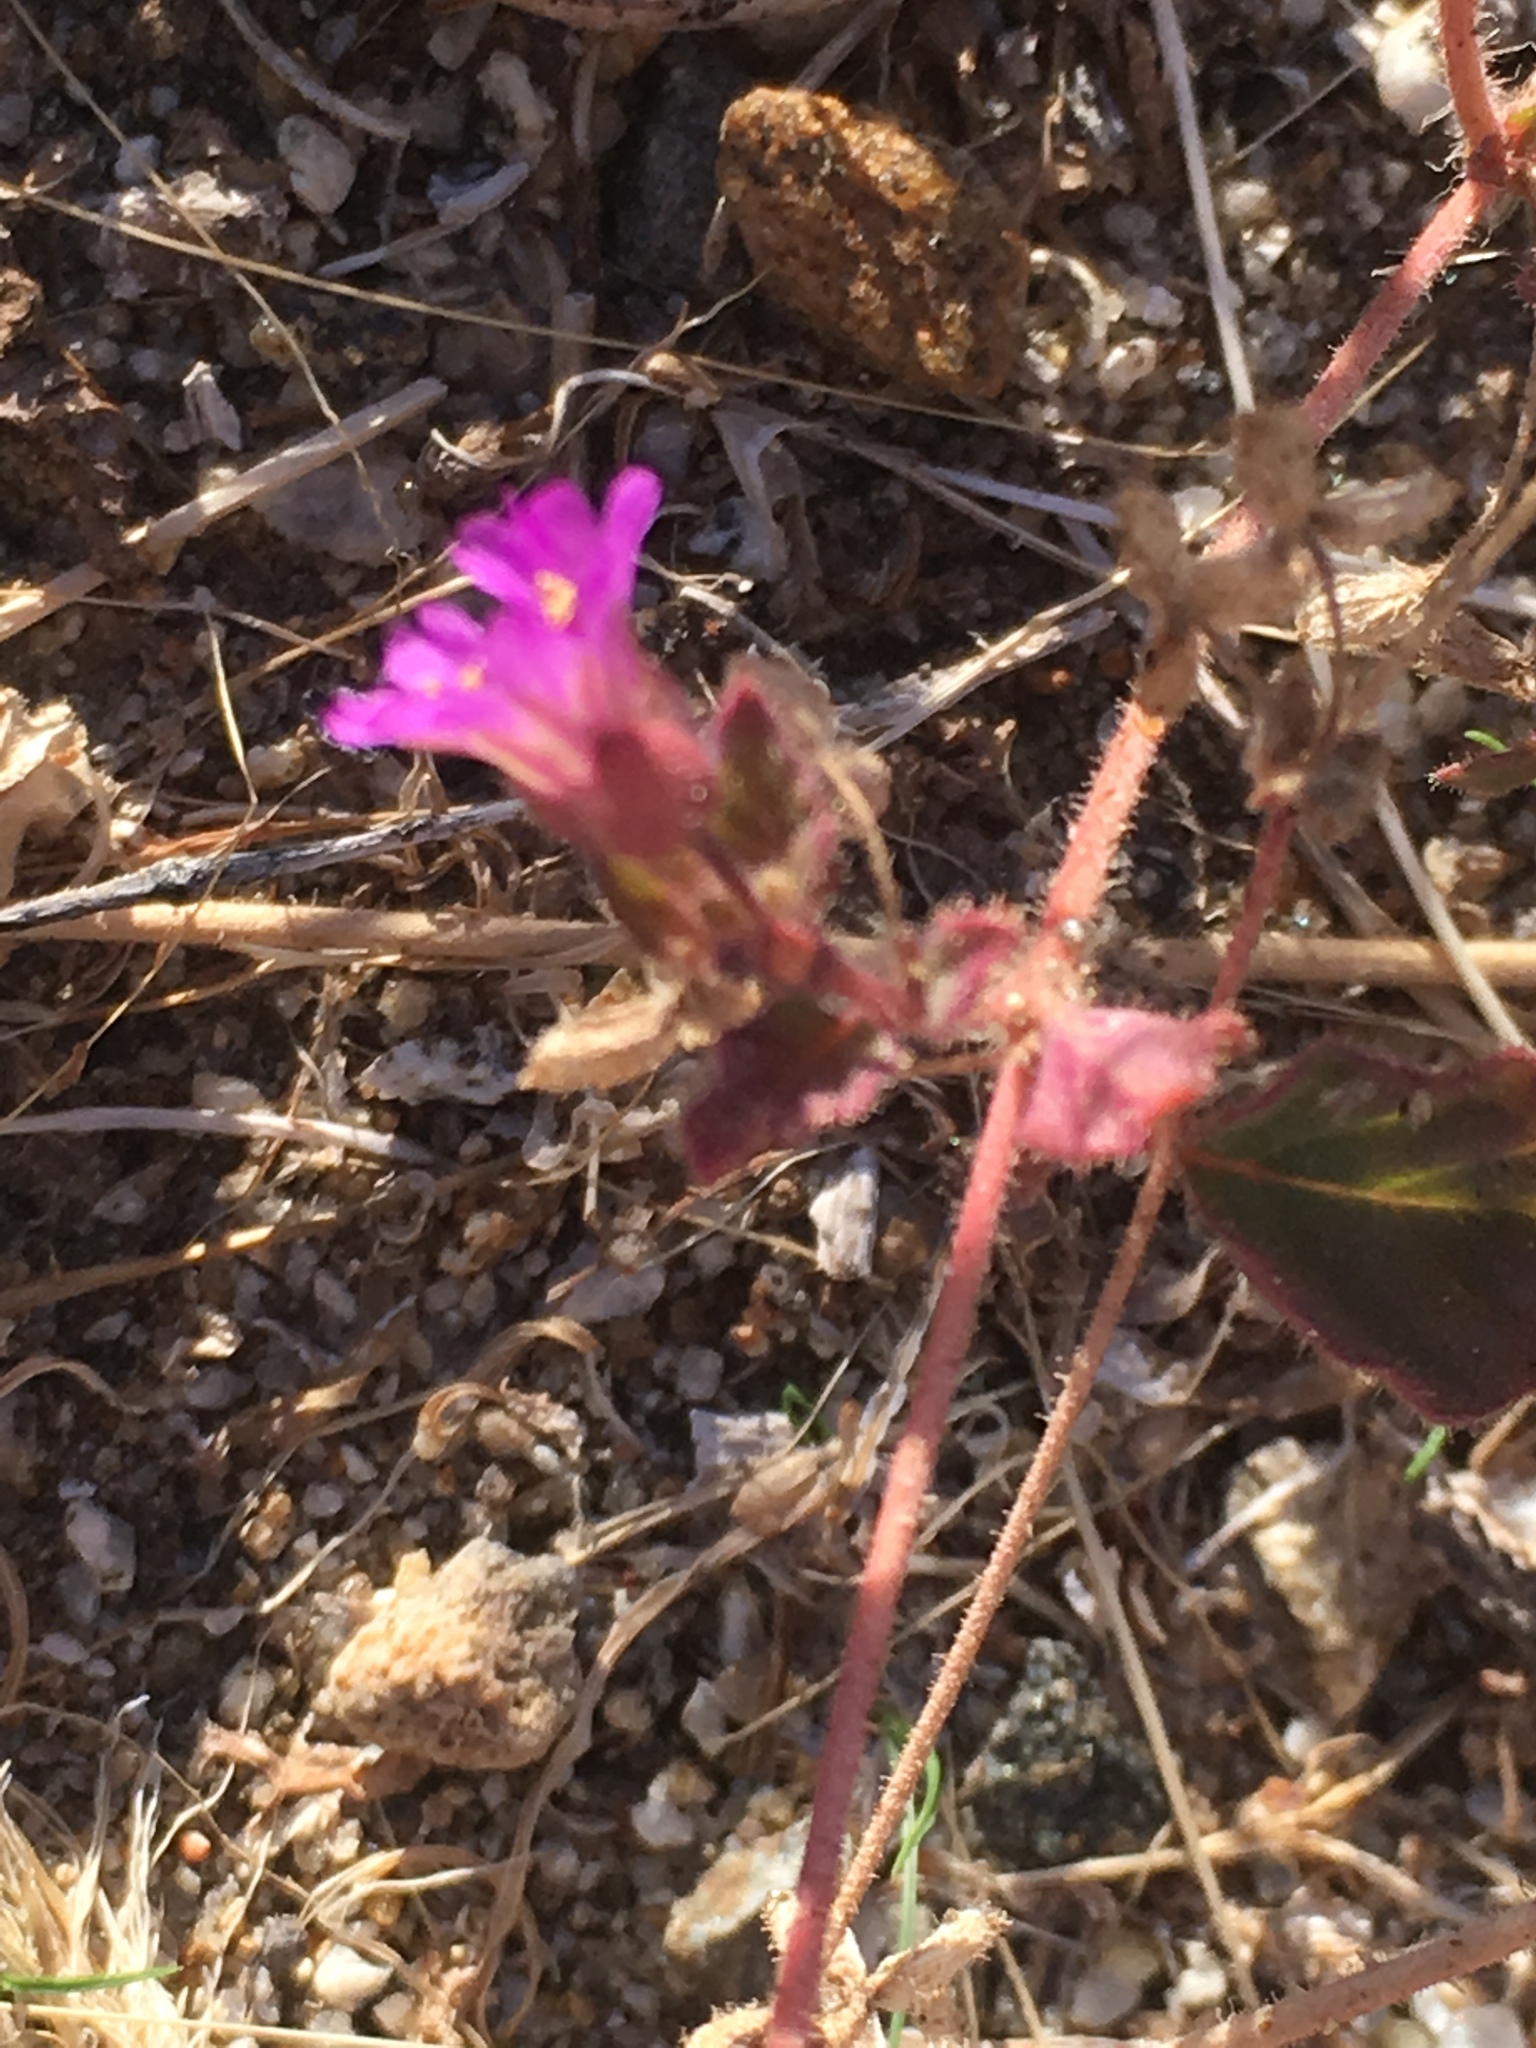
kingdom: Plantae
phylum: Tracheophyta
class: Magnoliopsida
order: Caryophyllales
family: Nyctaginaceae
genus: Allionia
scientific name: Allionia incarnata
